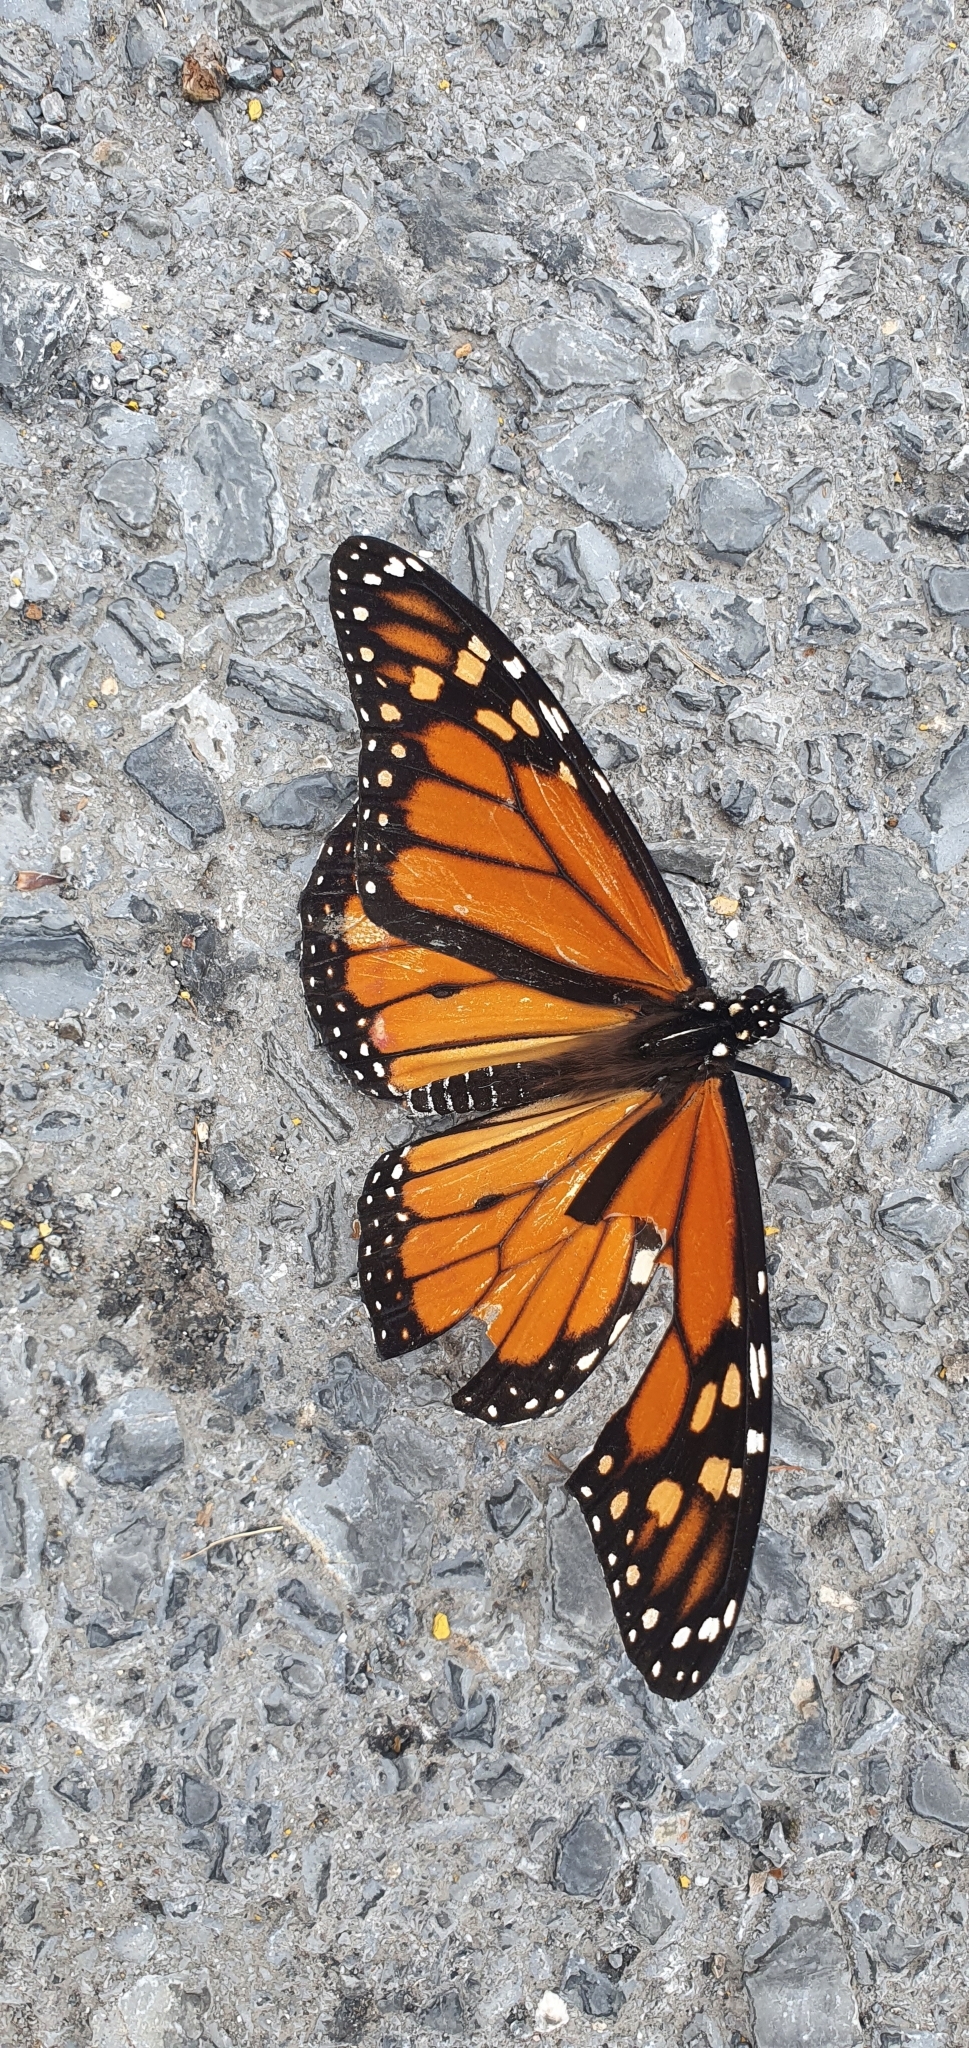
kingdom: Animalia
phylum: Arthropoda
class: Insecta
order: Lepidoptera
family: Nymphalidae
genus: Danaus
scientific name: Danaus plexippus
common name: Monarch
